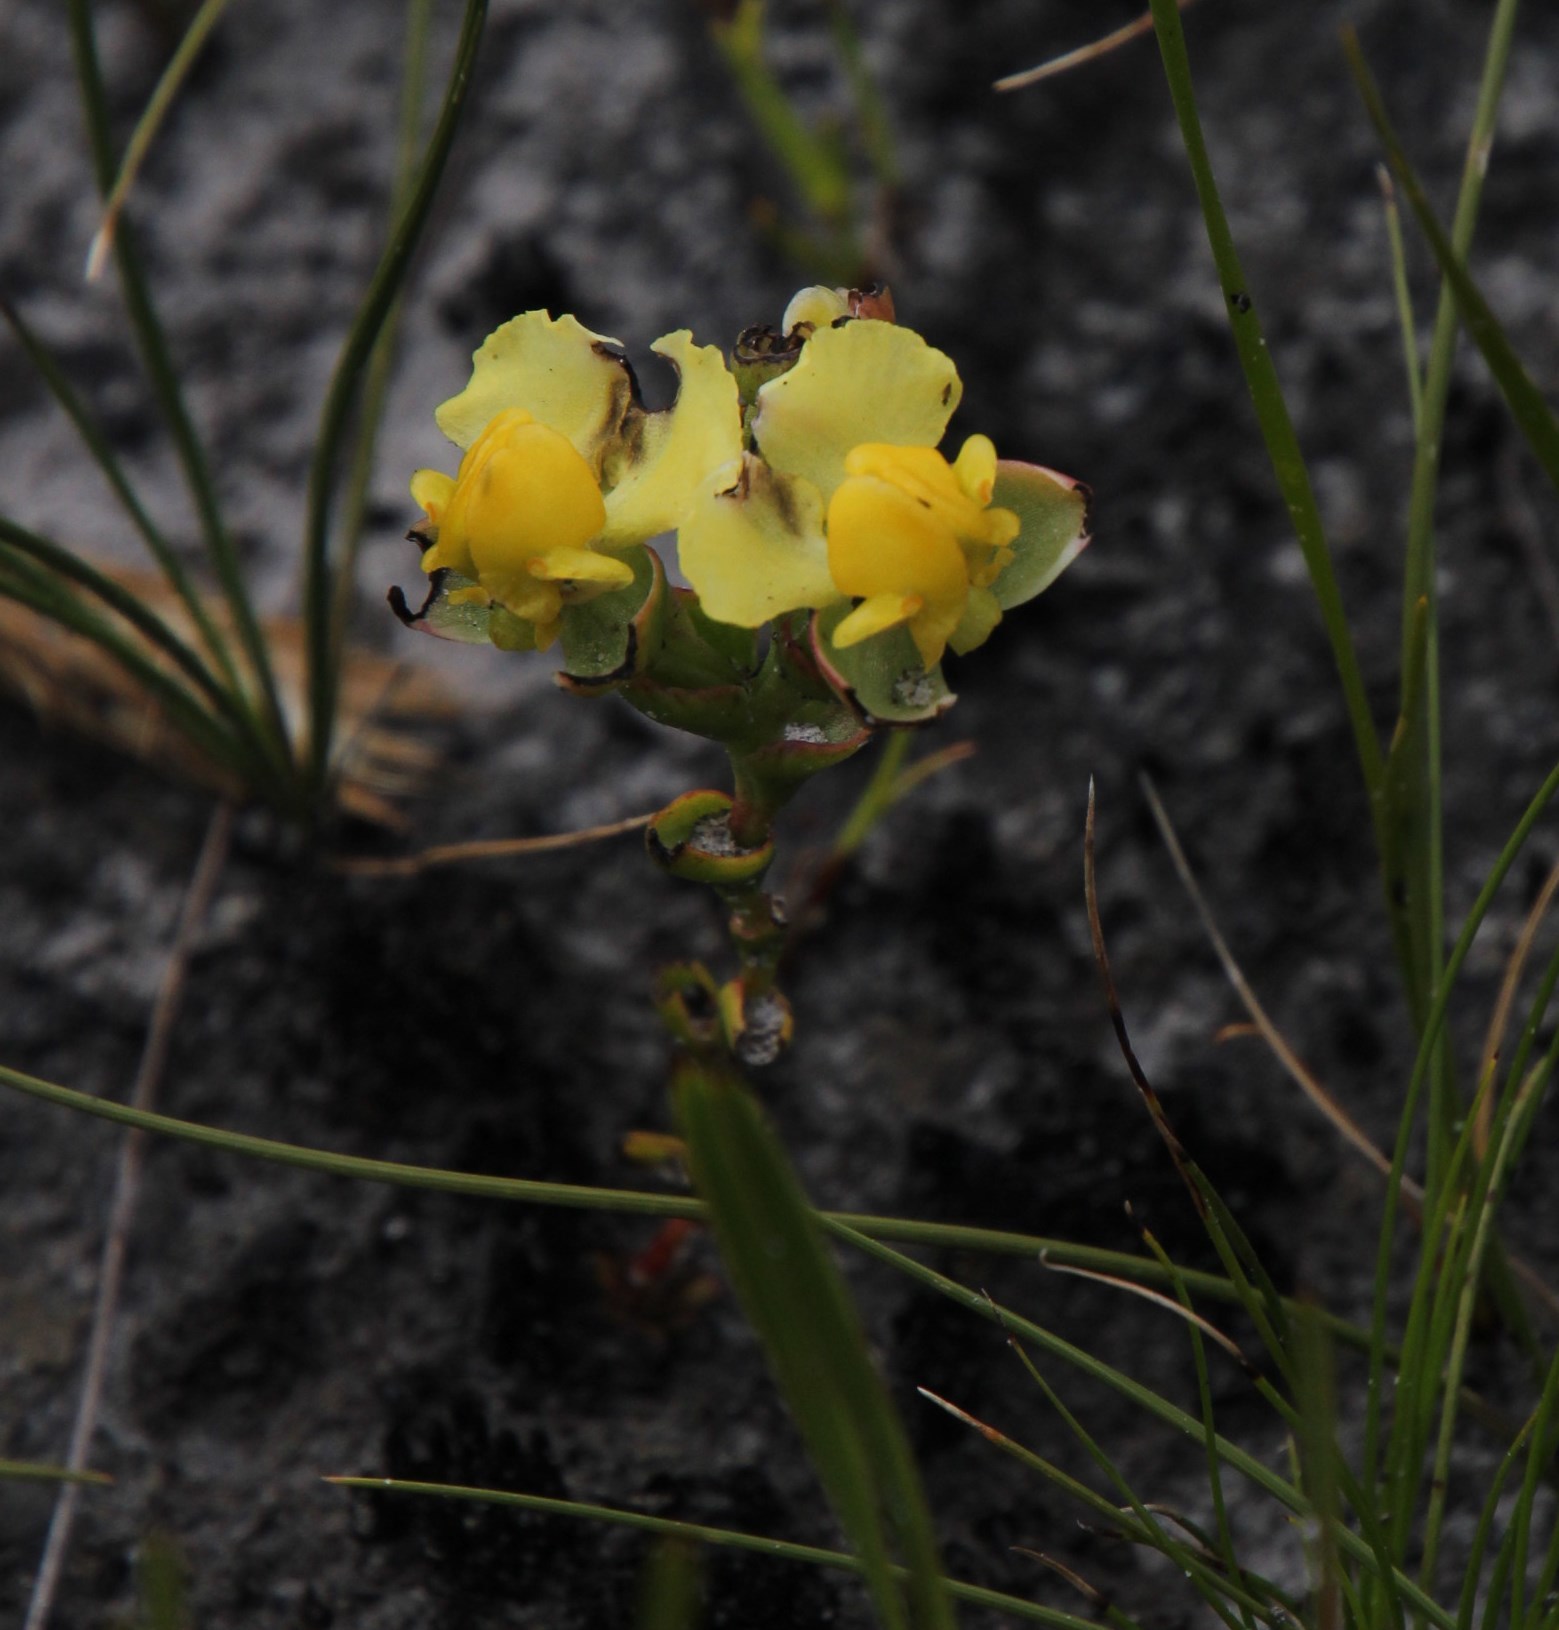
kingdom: Plantae
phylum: Tracheophyta
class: Liliopsida
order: Asparagales
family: Orchidaceae
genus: Ceratandra
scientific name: Ceratandra harveyana
